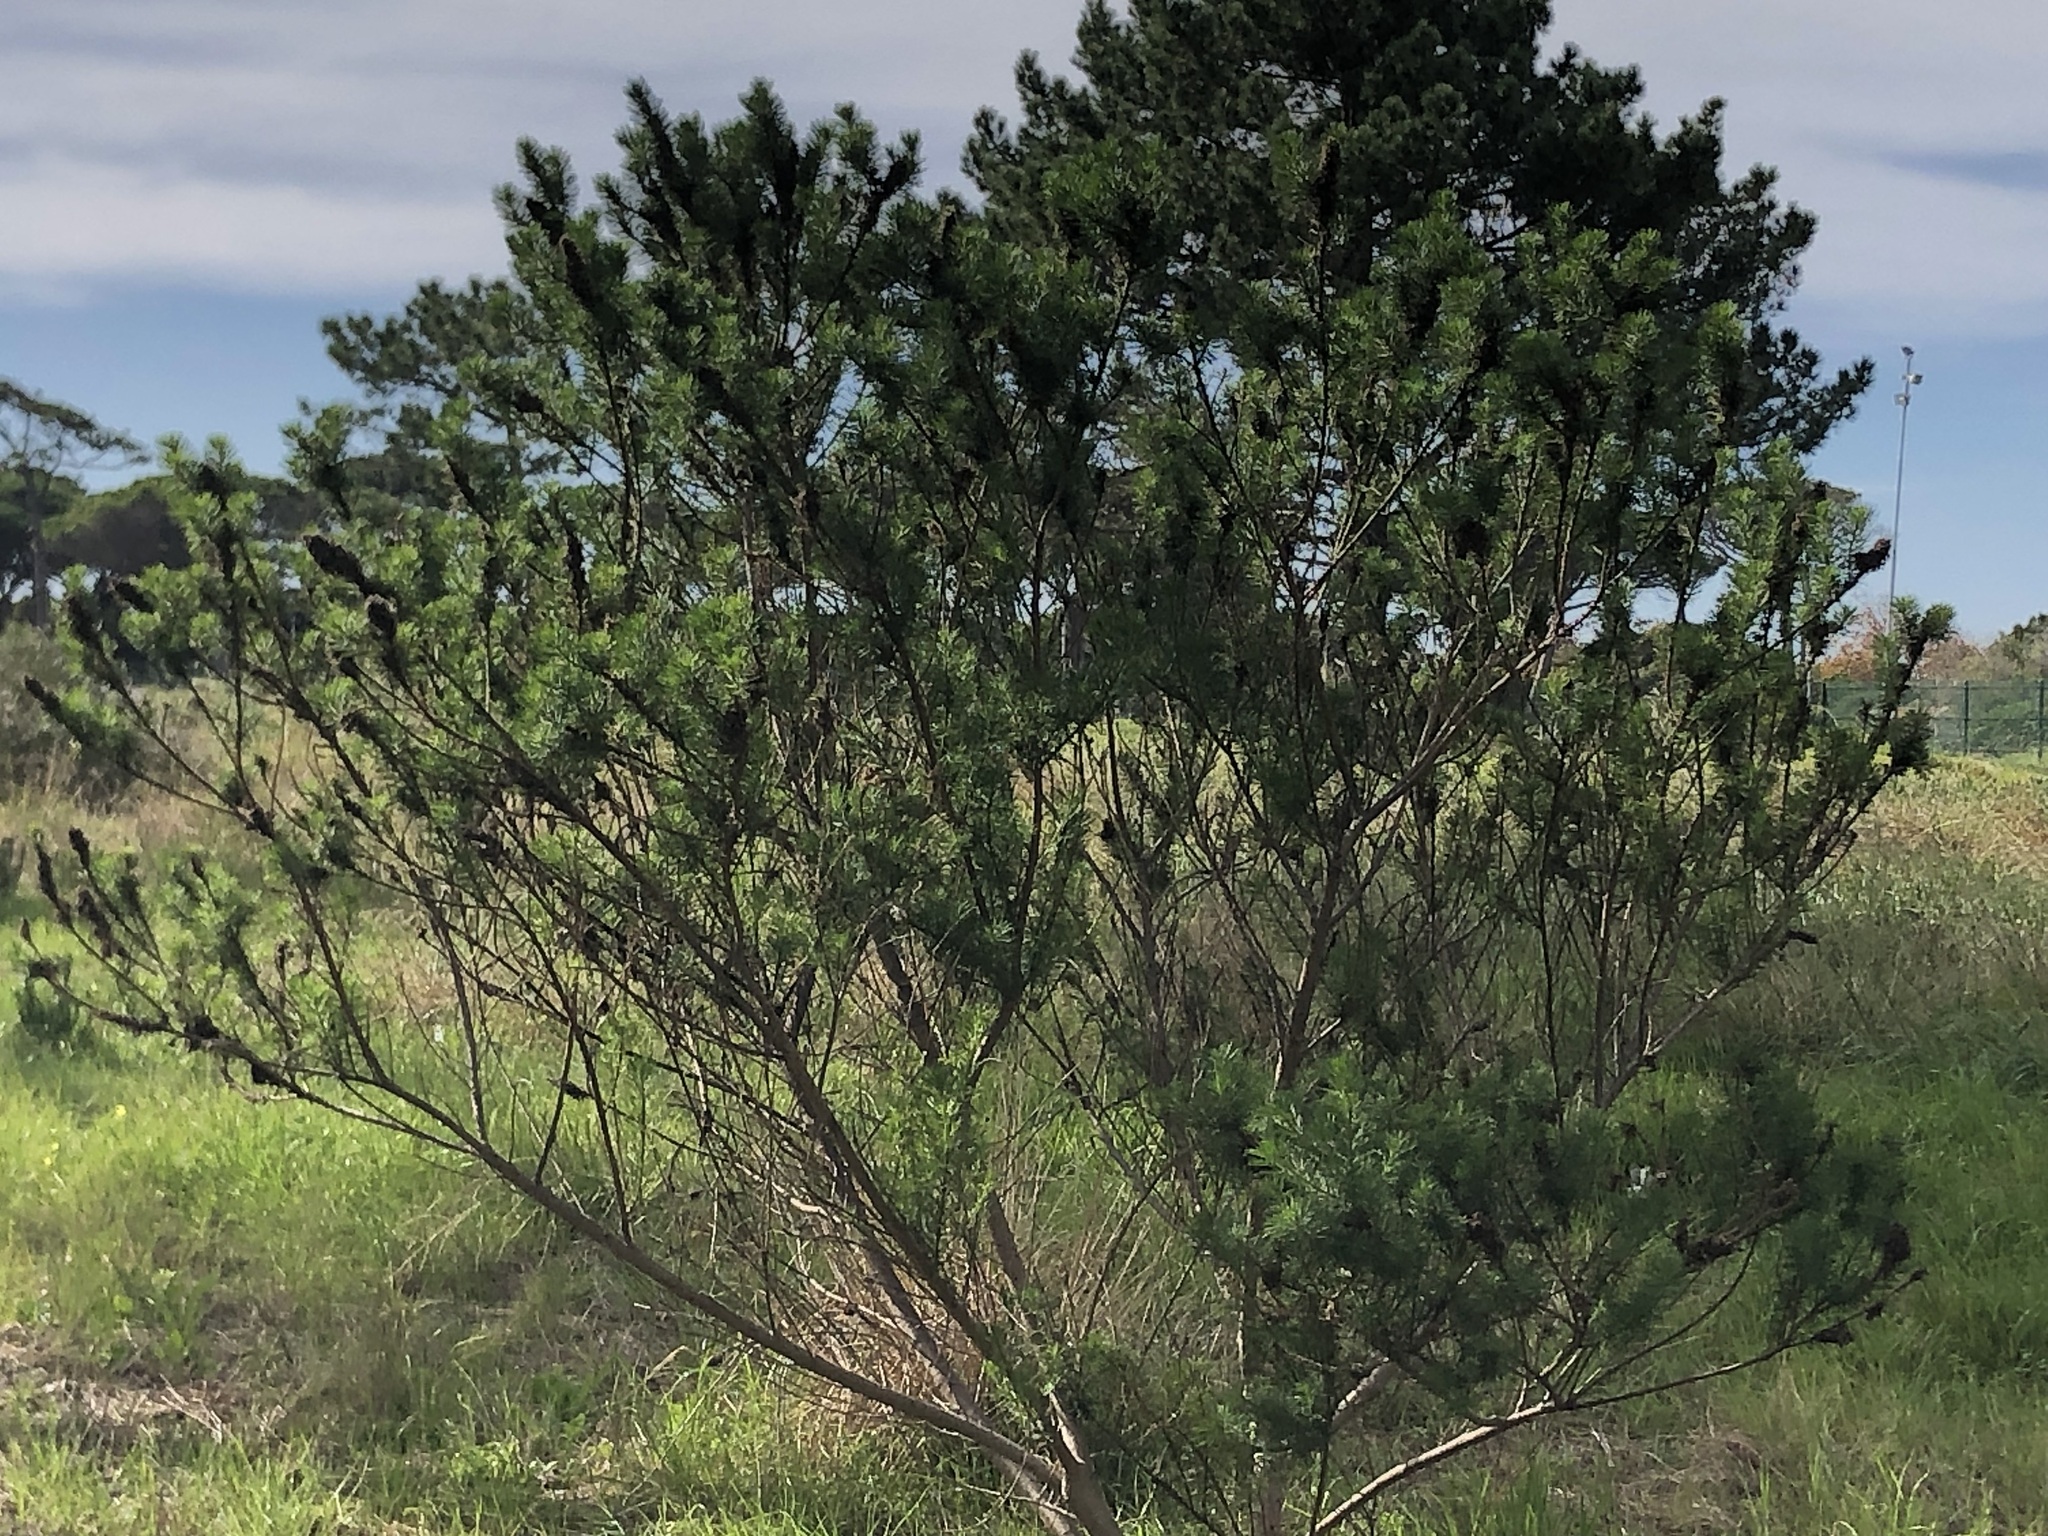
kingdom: Plantae
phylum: Tracheophyta
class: Magnoliopsida
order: Fabales
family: Fabaceae
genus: Psoralea
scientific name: Psoralea pinnata
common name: African scurfpea
